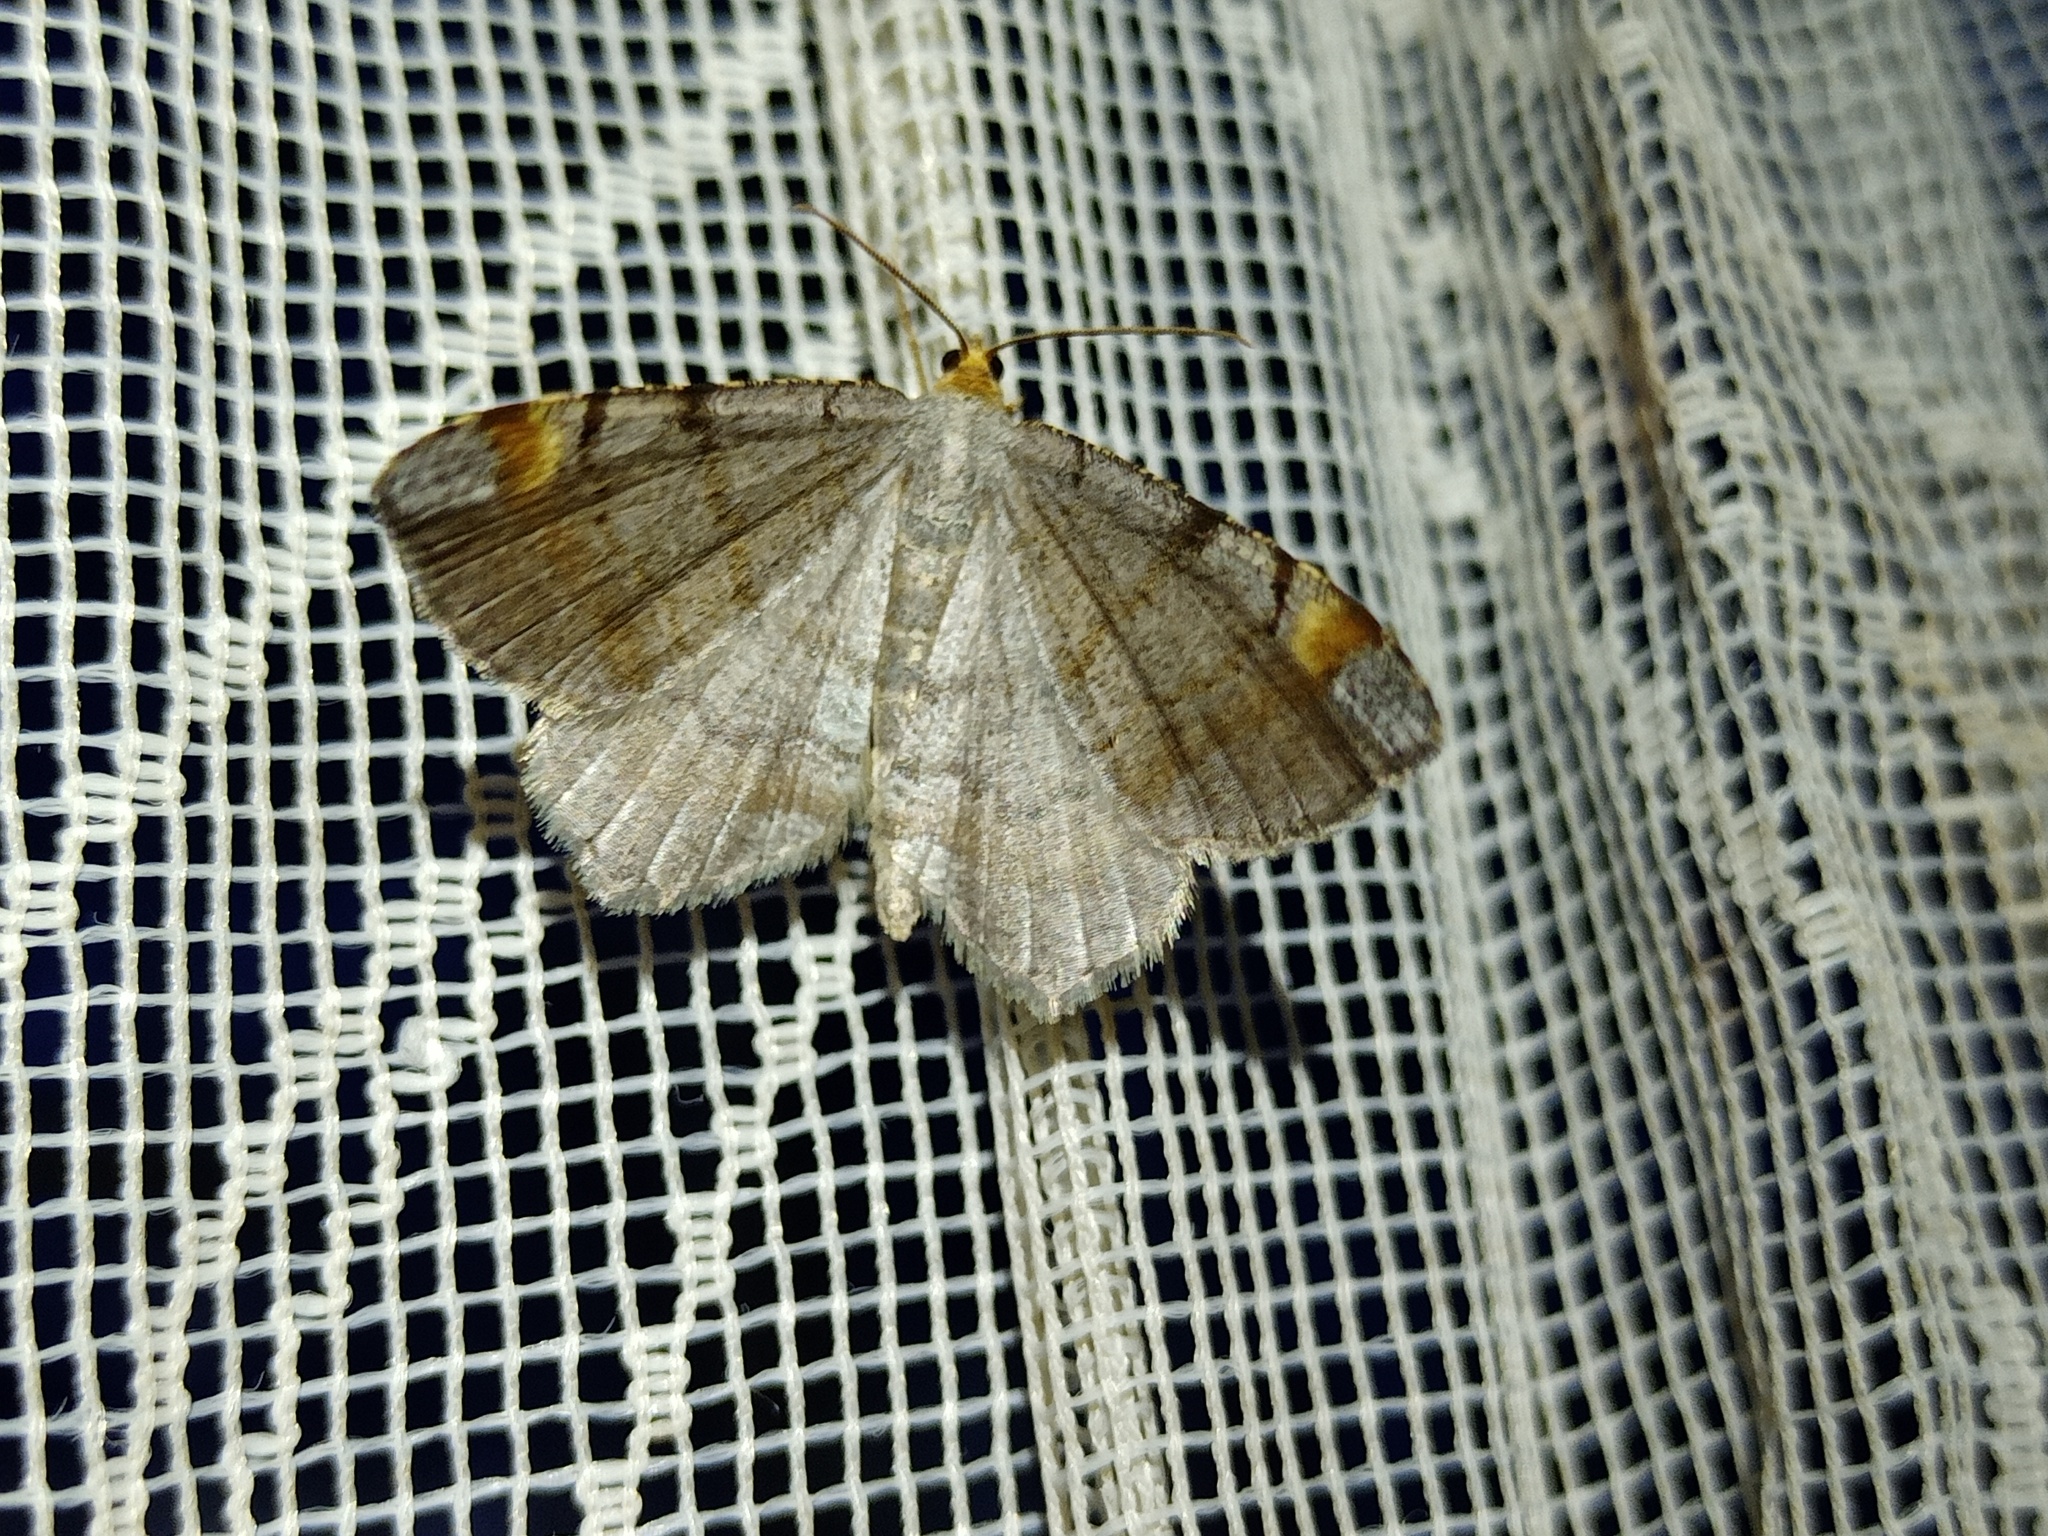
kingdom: Animalia
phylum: Arthropoda
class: Insecta
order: Lepidoptera
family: Geometridae
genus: Macaria
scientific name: Macaria liturata
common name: Tawny-barred angle
